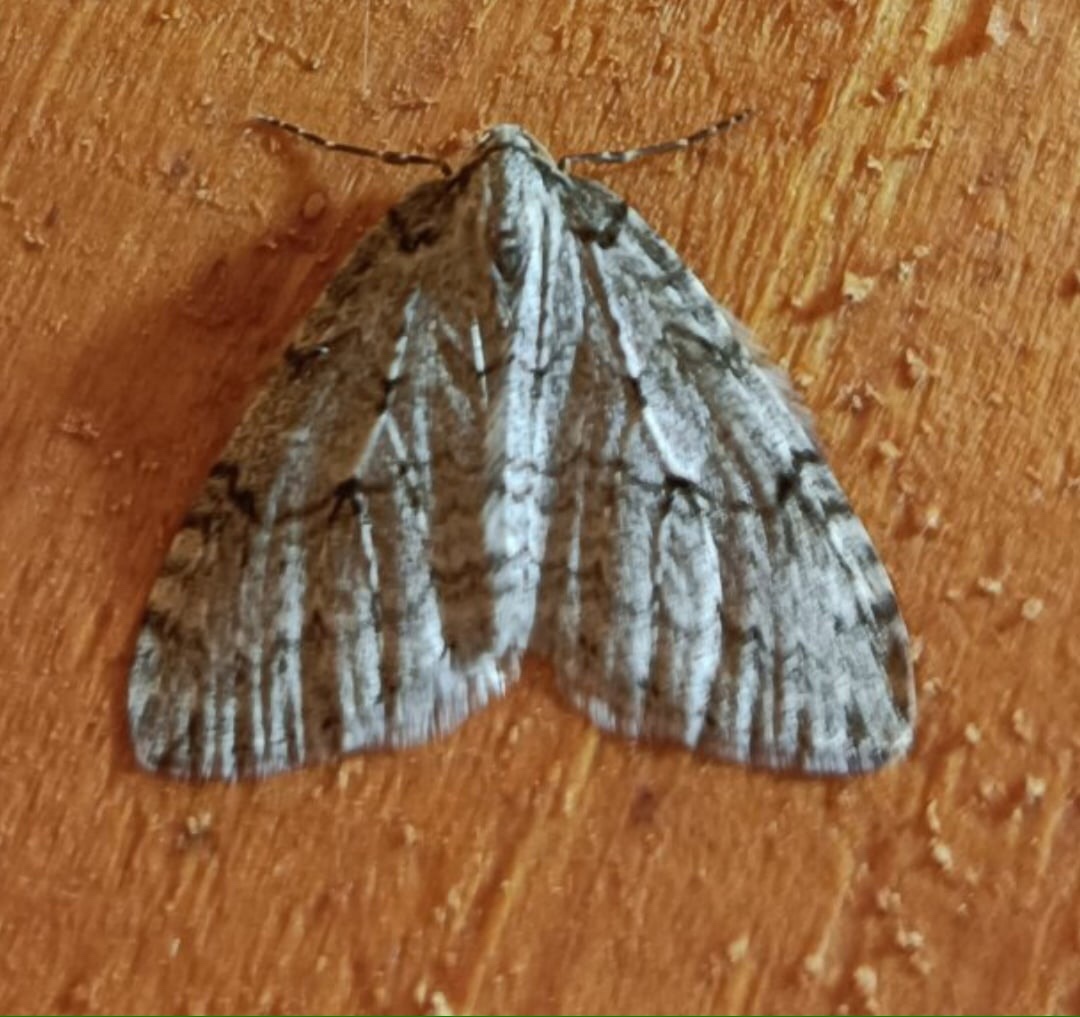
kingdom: Animalia
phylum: Arthropoda
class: Insecta
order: Lepidoptera
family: Geometridae
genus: Epirrita
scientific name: Epirrita autumnata
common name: Autumnal moth
